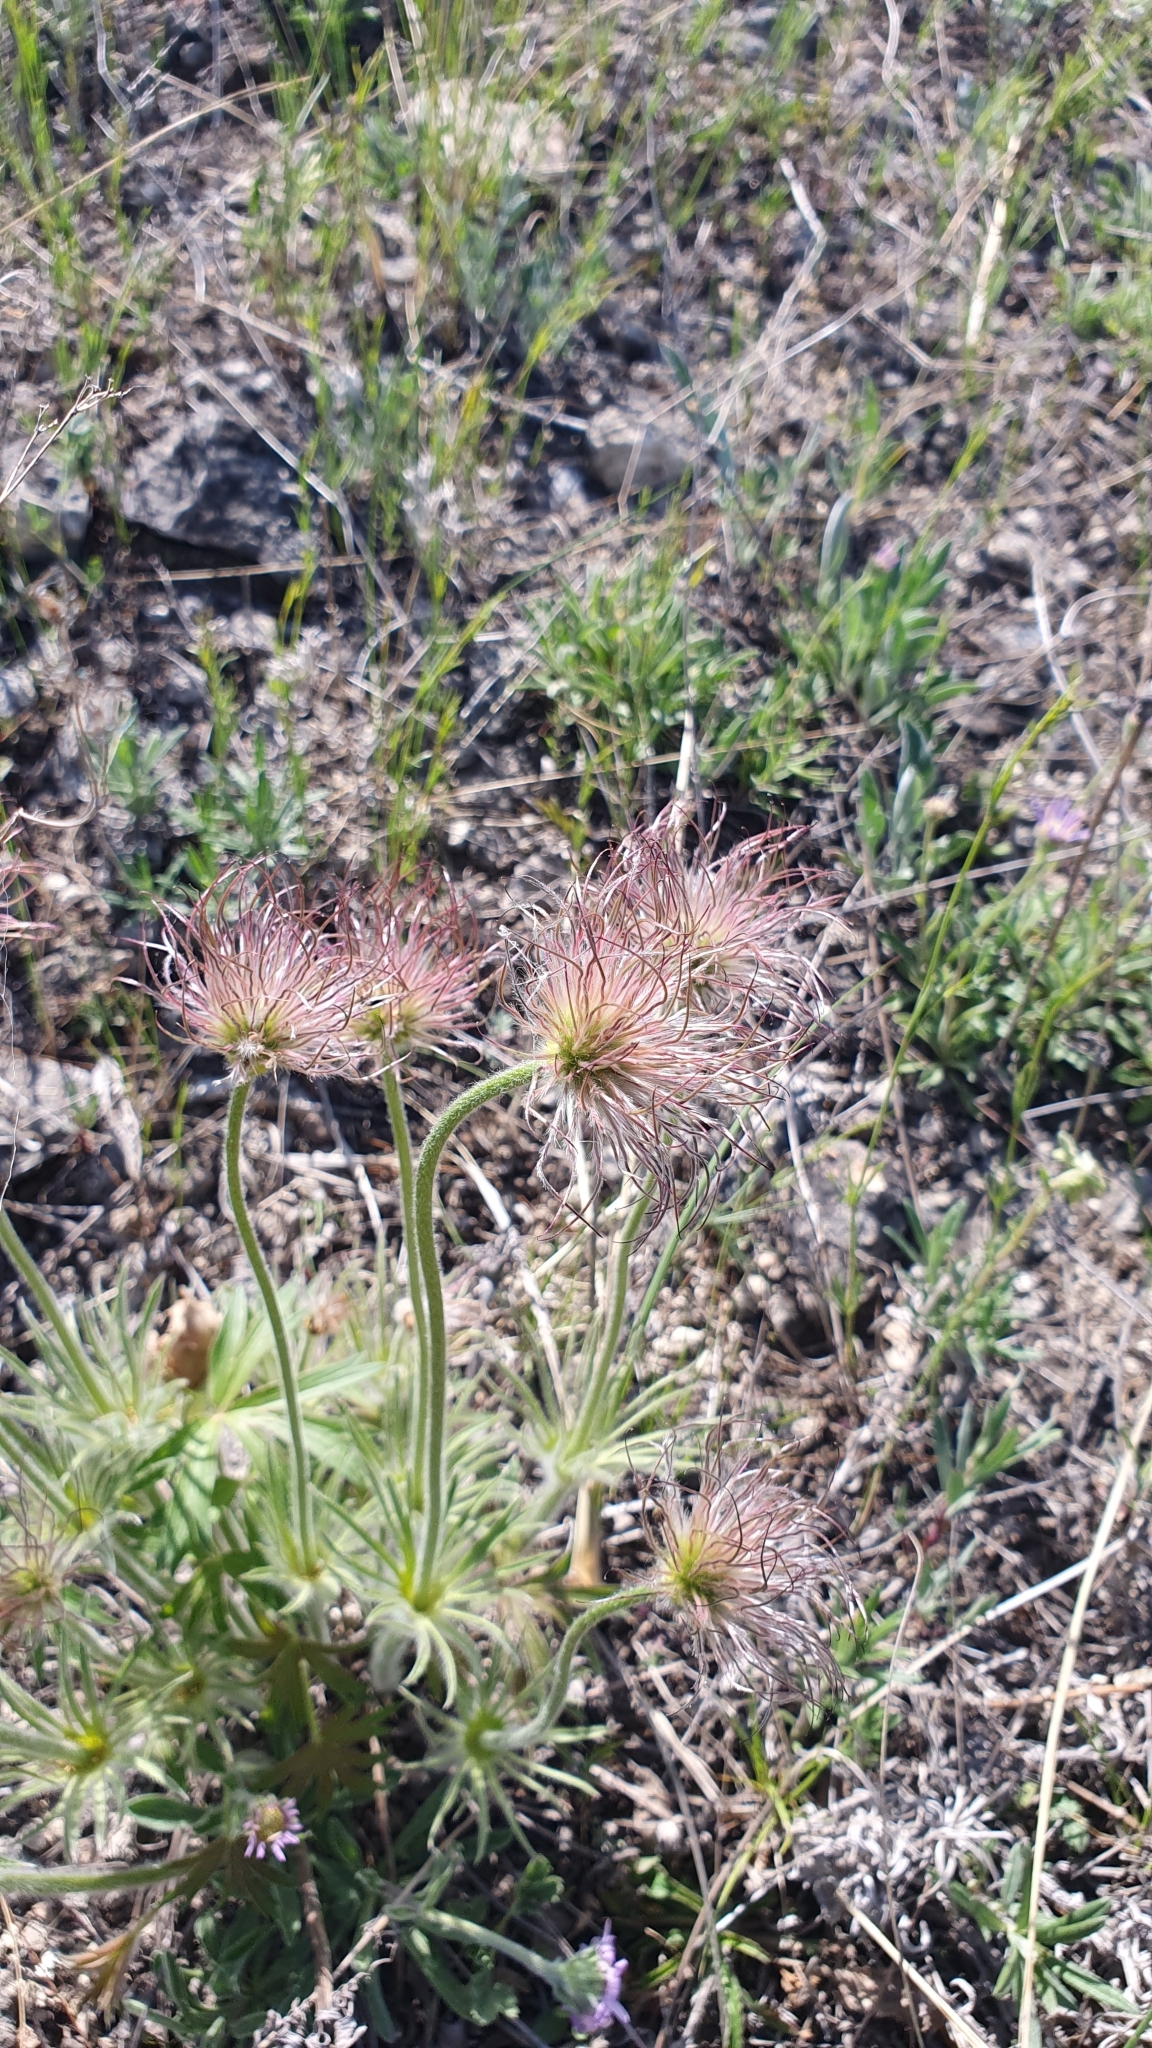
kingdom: Plantae
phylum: Tracheophyta
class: Magnoliopsida
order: Ranunculales
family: Ranunculaceae
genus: Pulsatilla
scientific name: Pulsatilla patens
